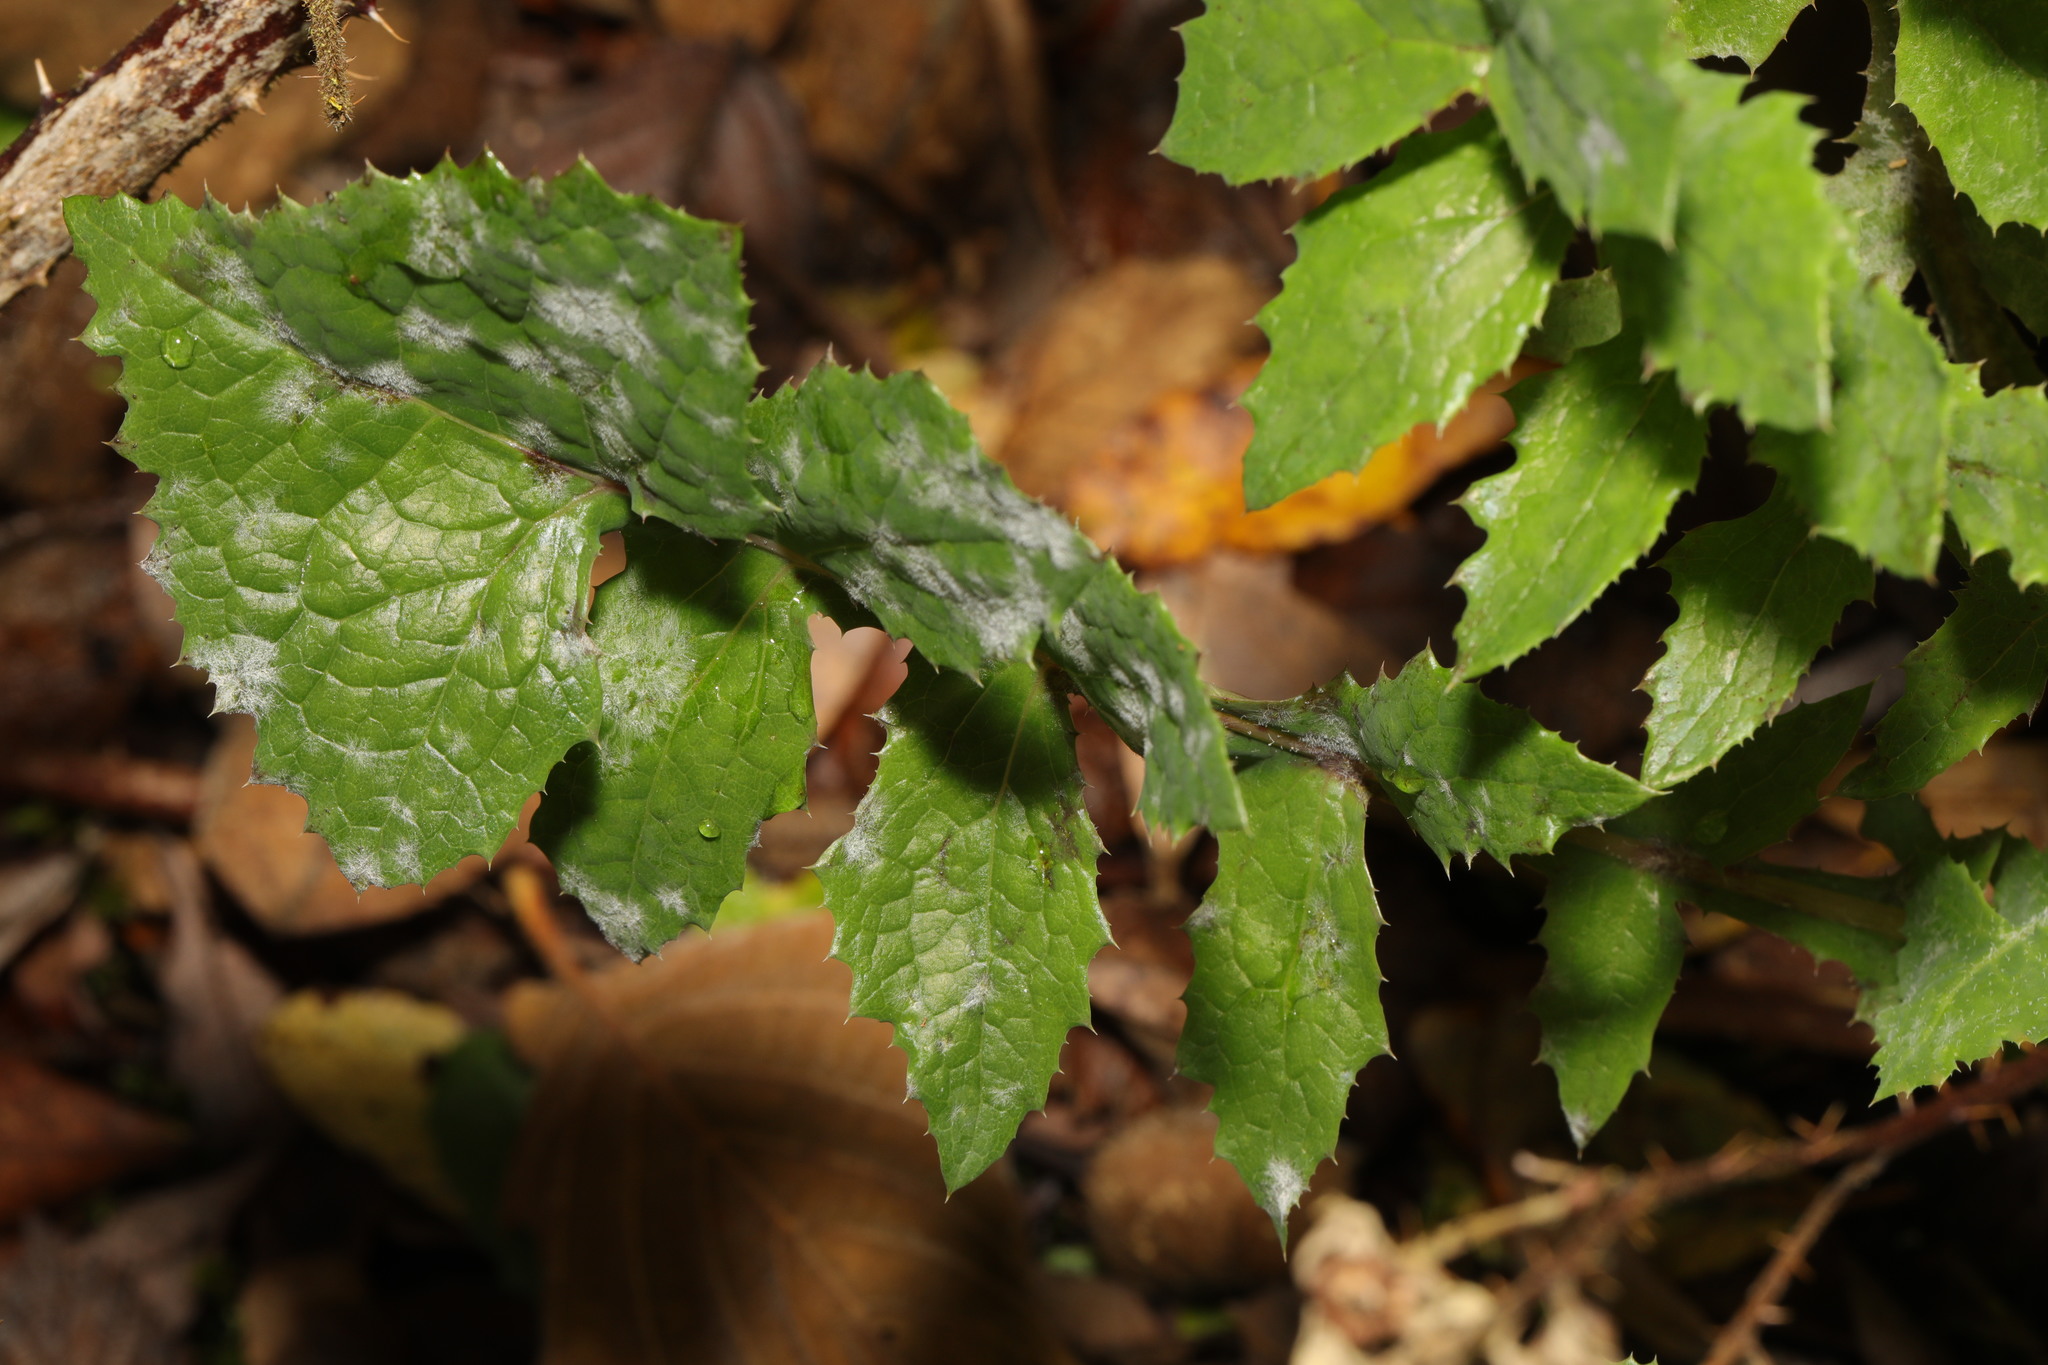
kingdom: Plantae
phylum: Tracheophyta
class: Magnoliopsida
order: Asterales
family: Asteraceae
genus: Sonchus
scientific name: Sonchus oleraceus
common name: Common sowthistle
